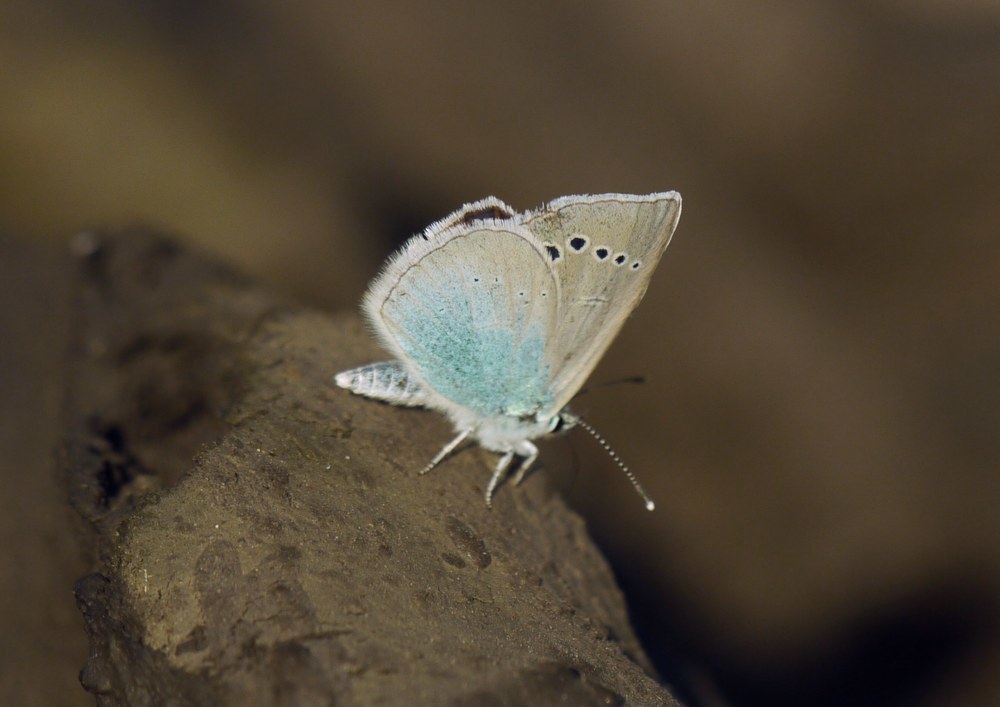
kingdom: Animalia
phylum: Arthropoda
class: Insecta
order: Lepidoptera
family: Lycaenidae
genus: Glaucopsyche
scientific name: Glaucopsyche alexis
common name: Green-underside blue
